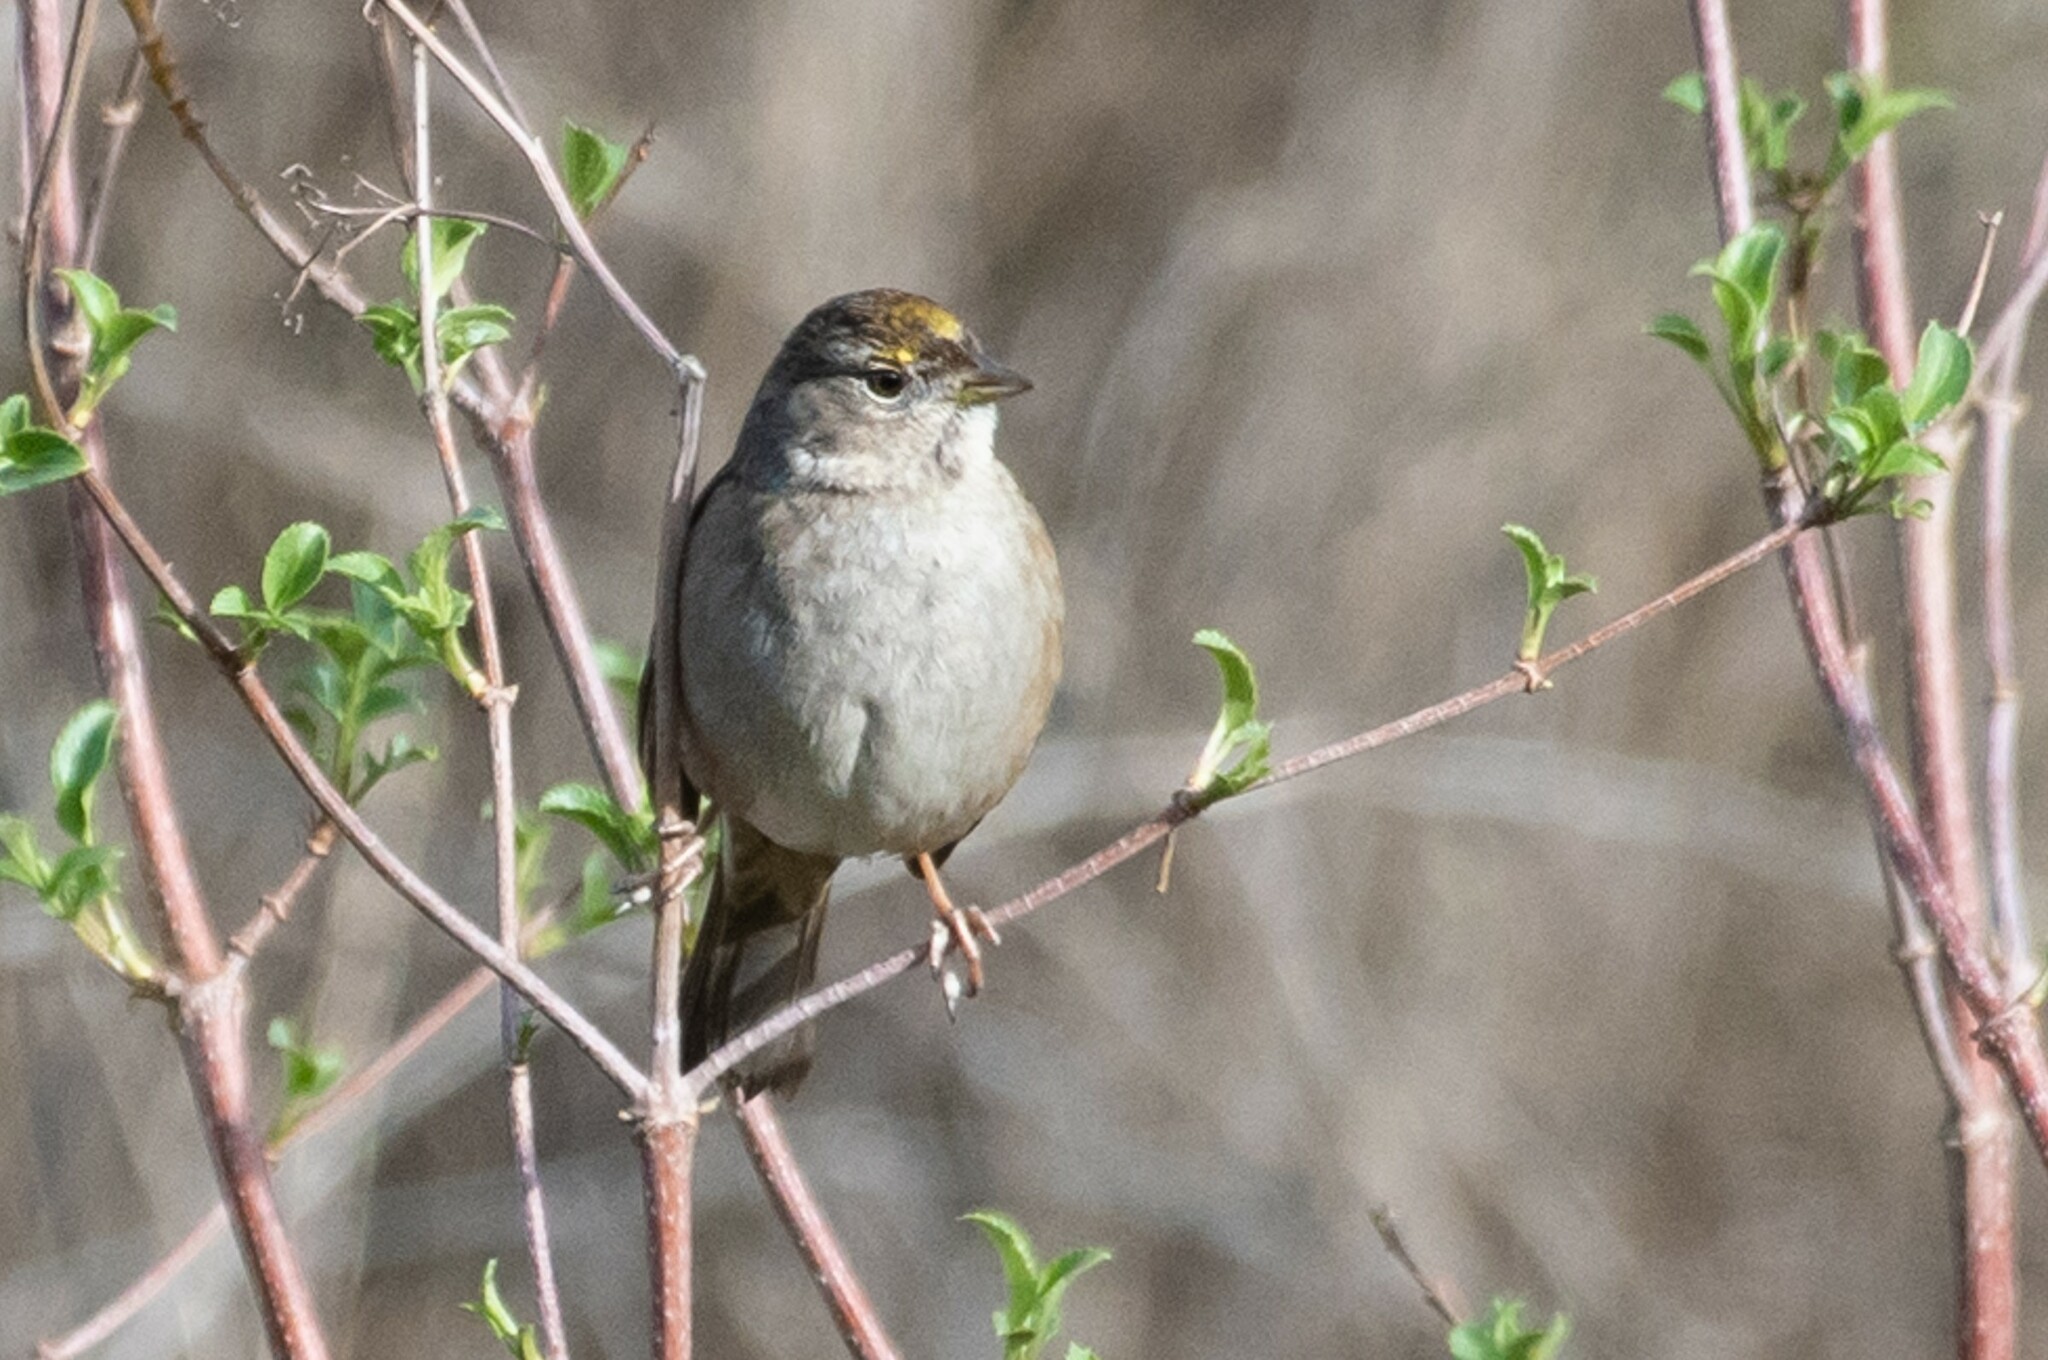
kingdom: Animalia
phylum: Chordata
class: Aves
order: Passeriformes
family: Passerellidae
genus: Zonotrichia
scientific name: Zonotrichia atricapilla
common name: Golden-crowned sparrow
